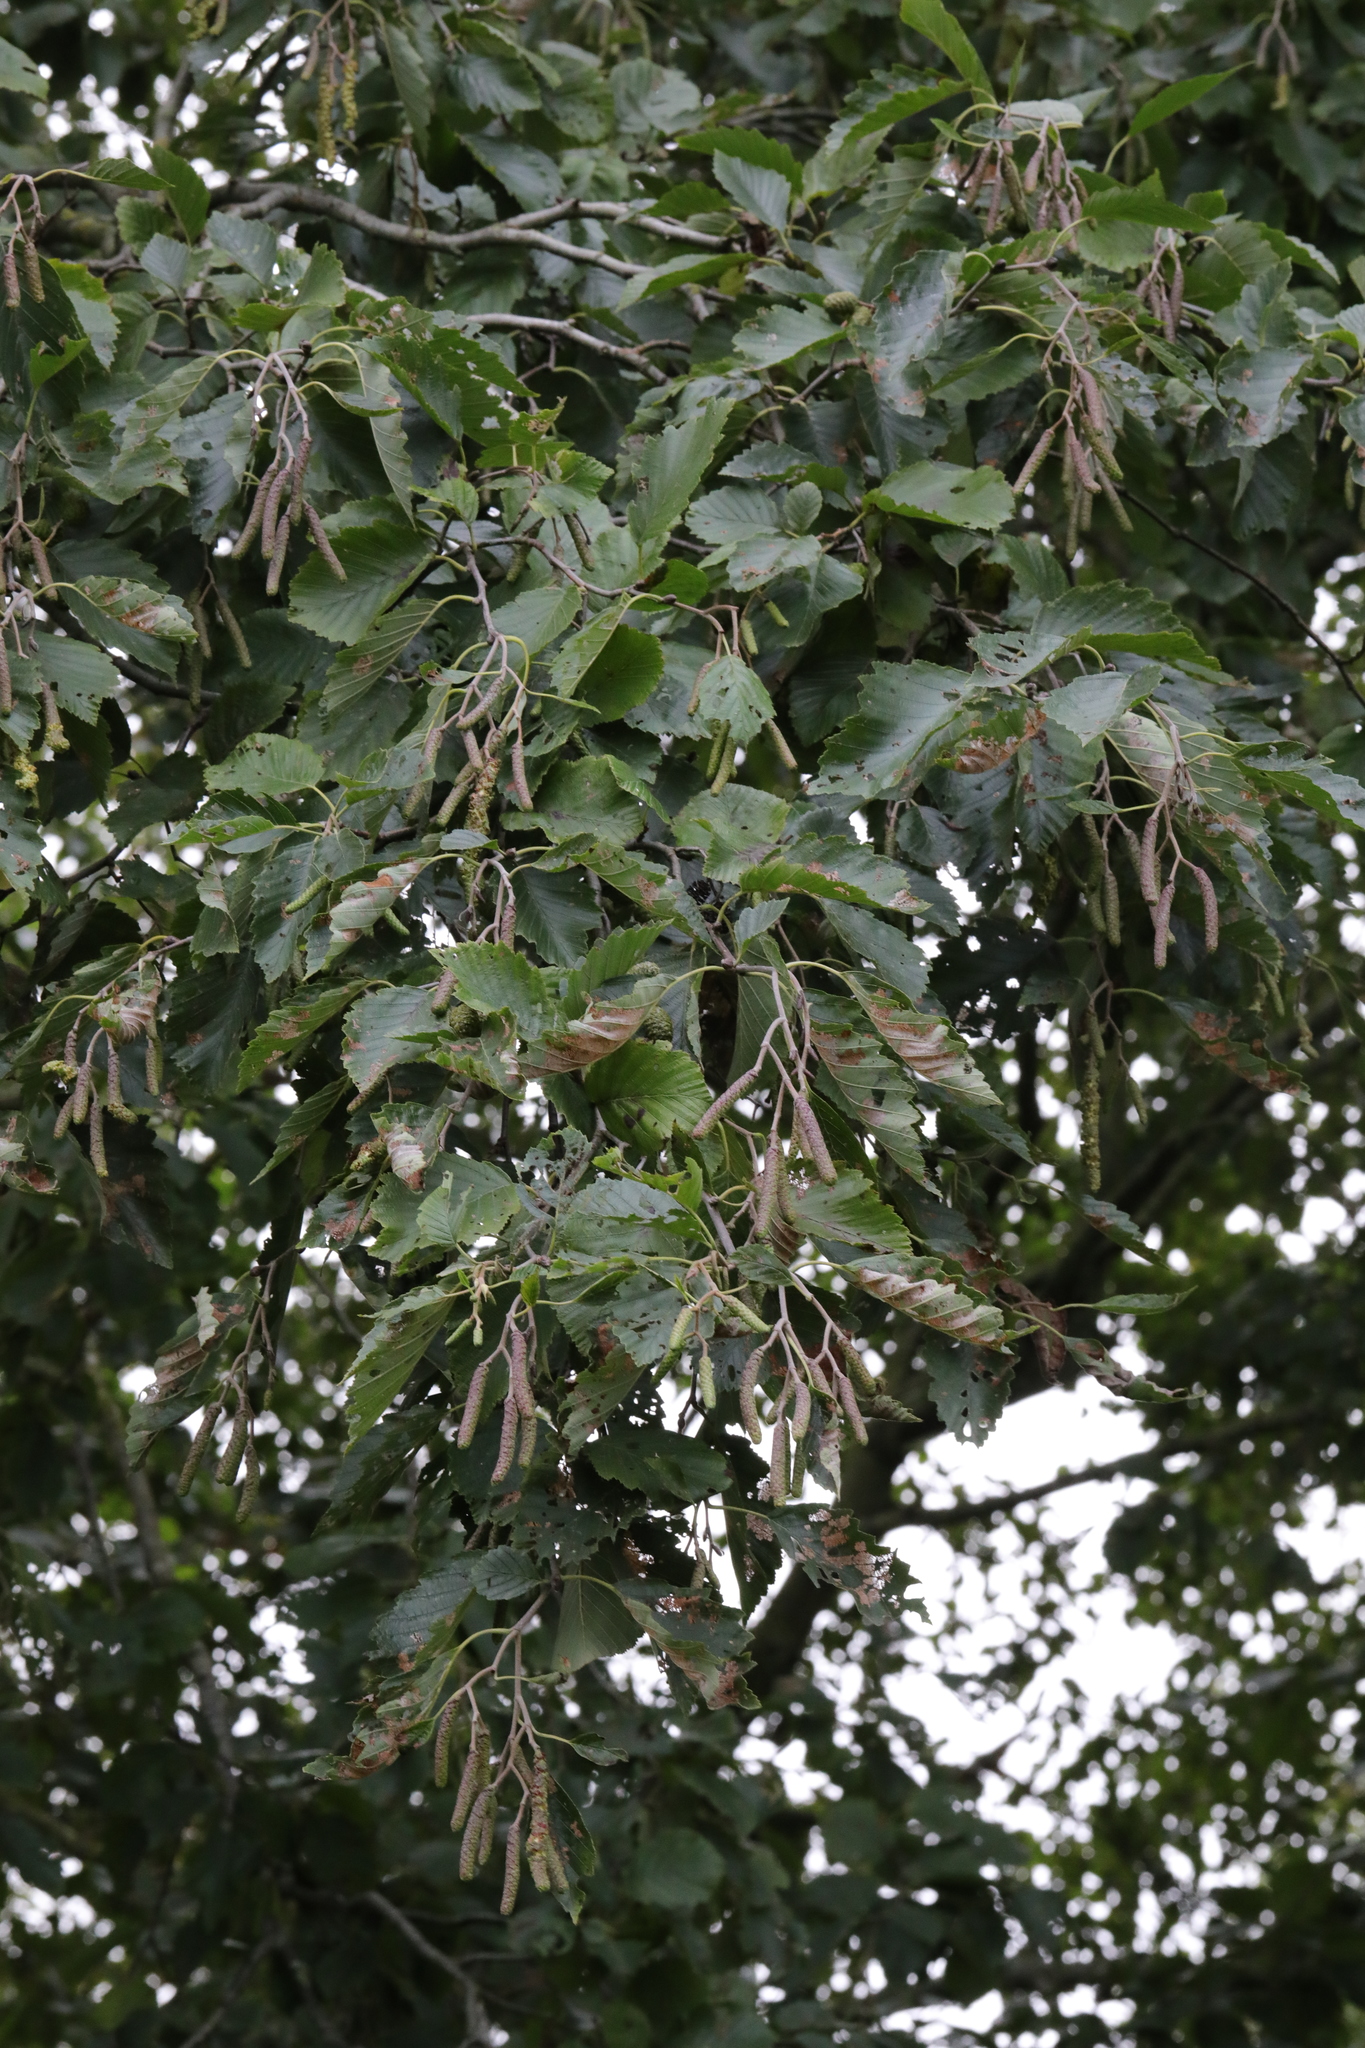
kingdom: Plantae
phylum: Tracheophyta
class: Magnoliopsida
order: Fagales
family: Betulaceae
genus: Alnus
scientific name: Alnus incana
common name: Grey alder
